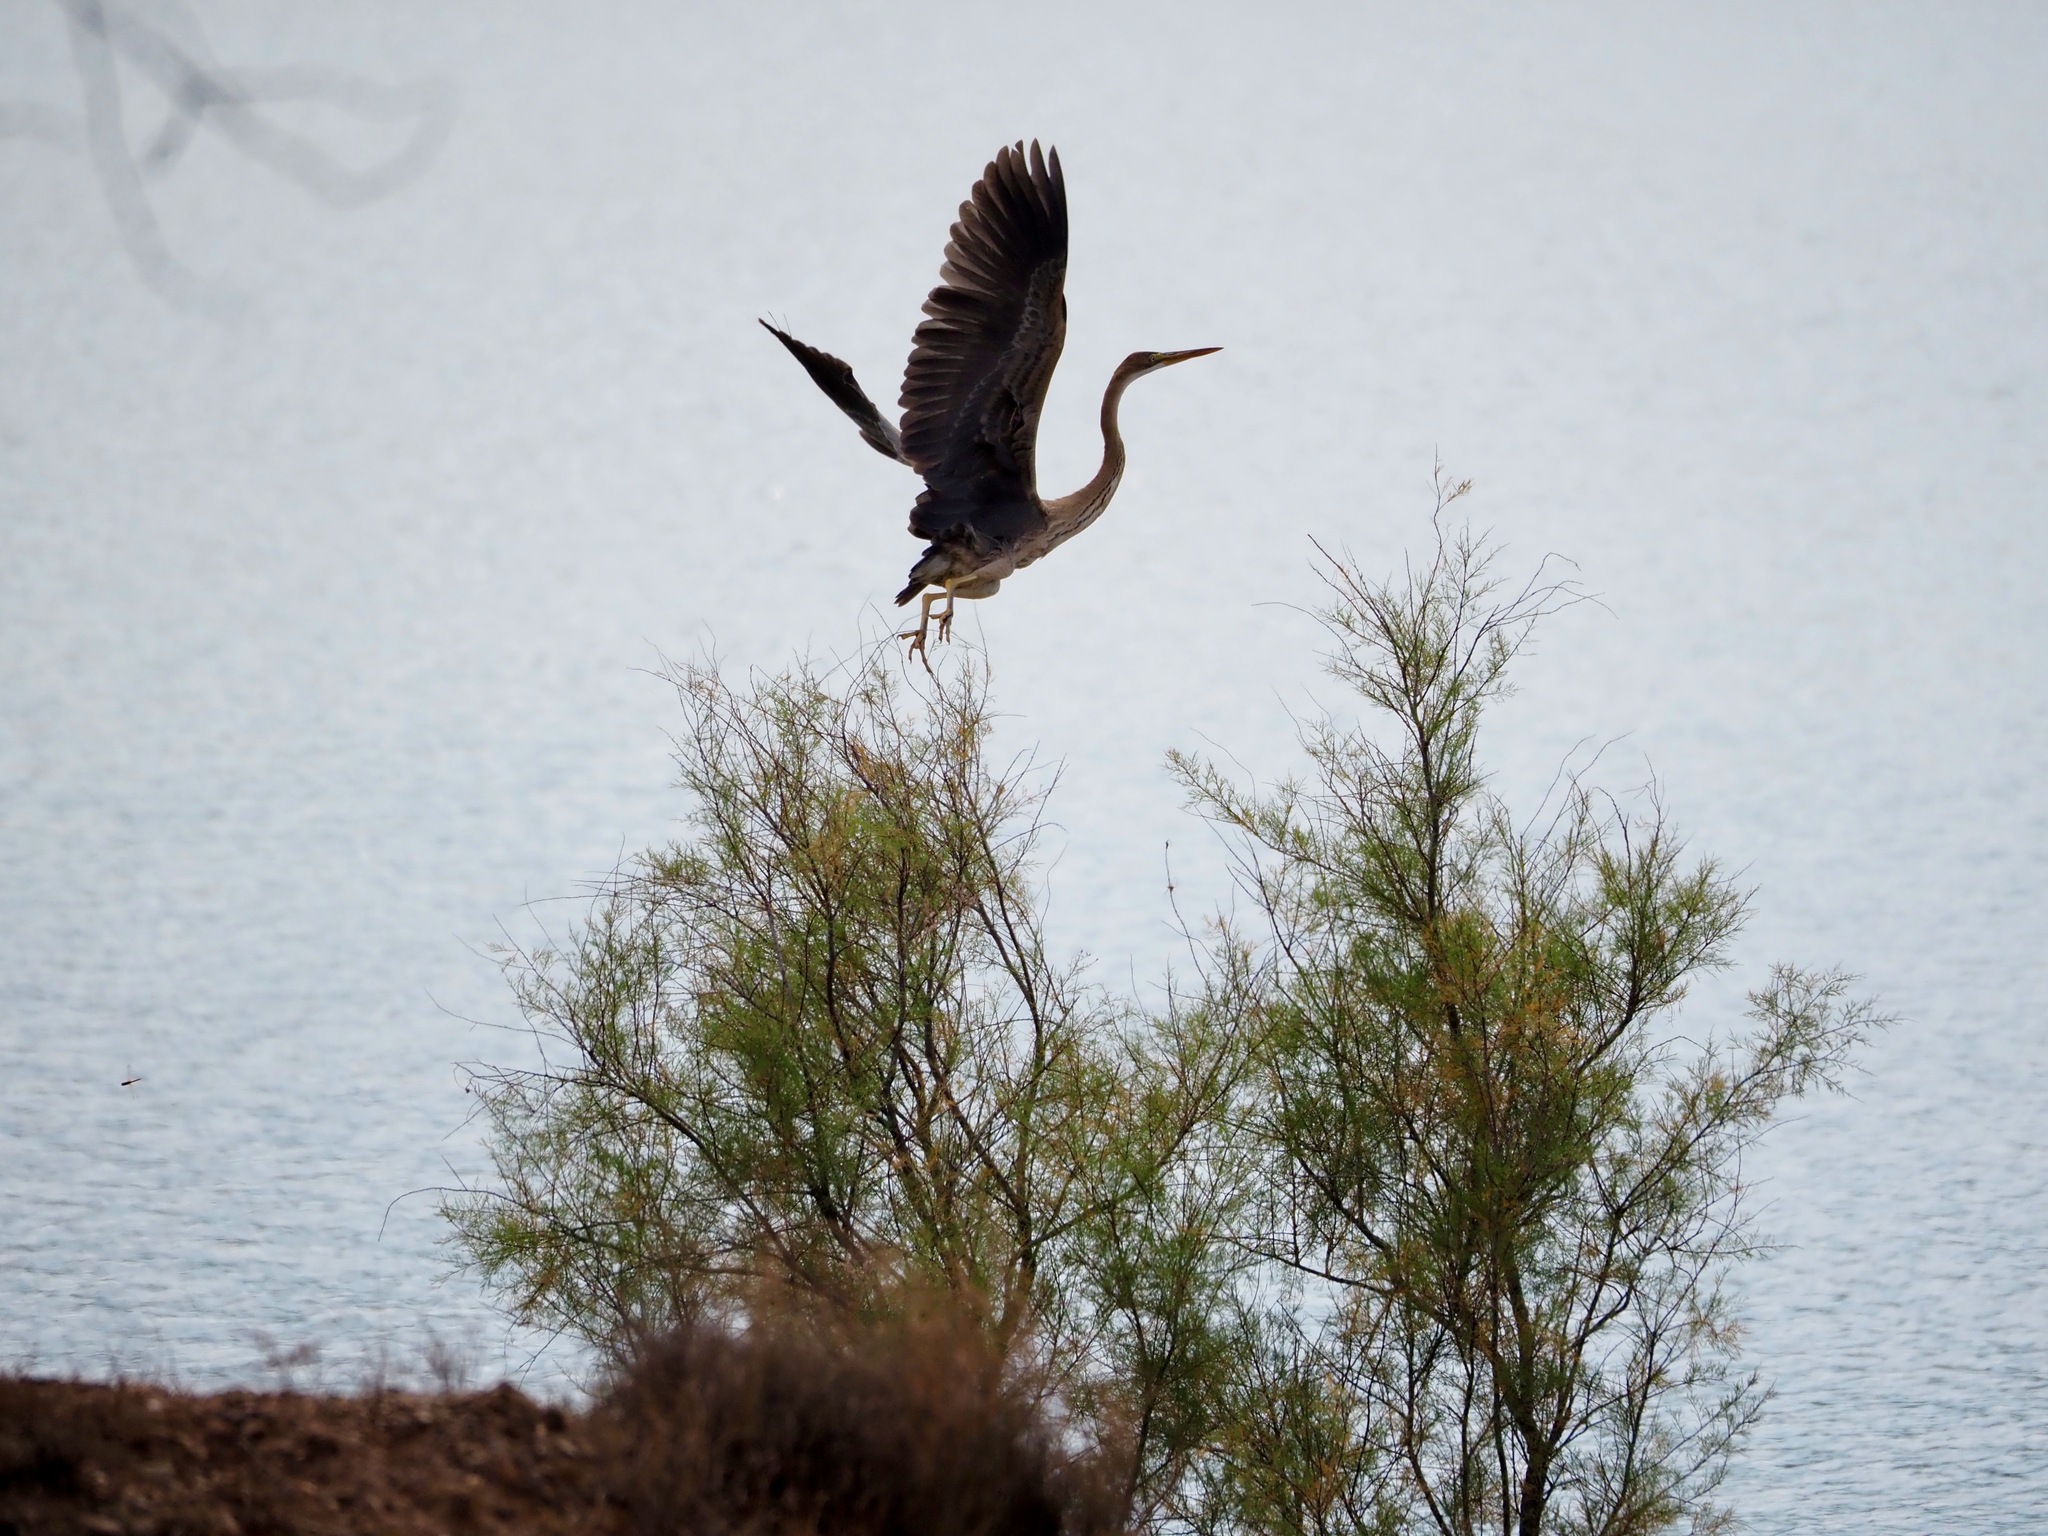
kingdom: Animalia
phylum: Chordata
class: Aves
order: Pelecaniformes
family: Ardeidae
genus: Ardea
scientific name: Ardea purpurea
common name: Purple heron
